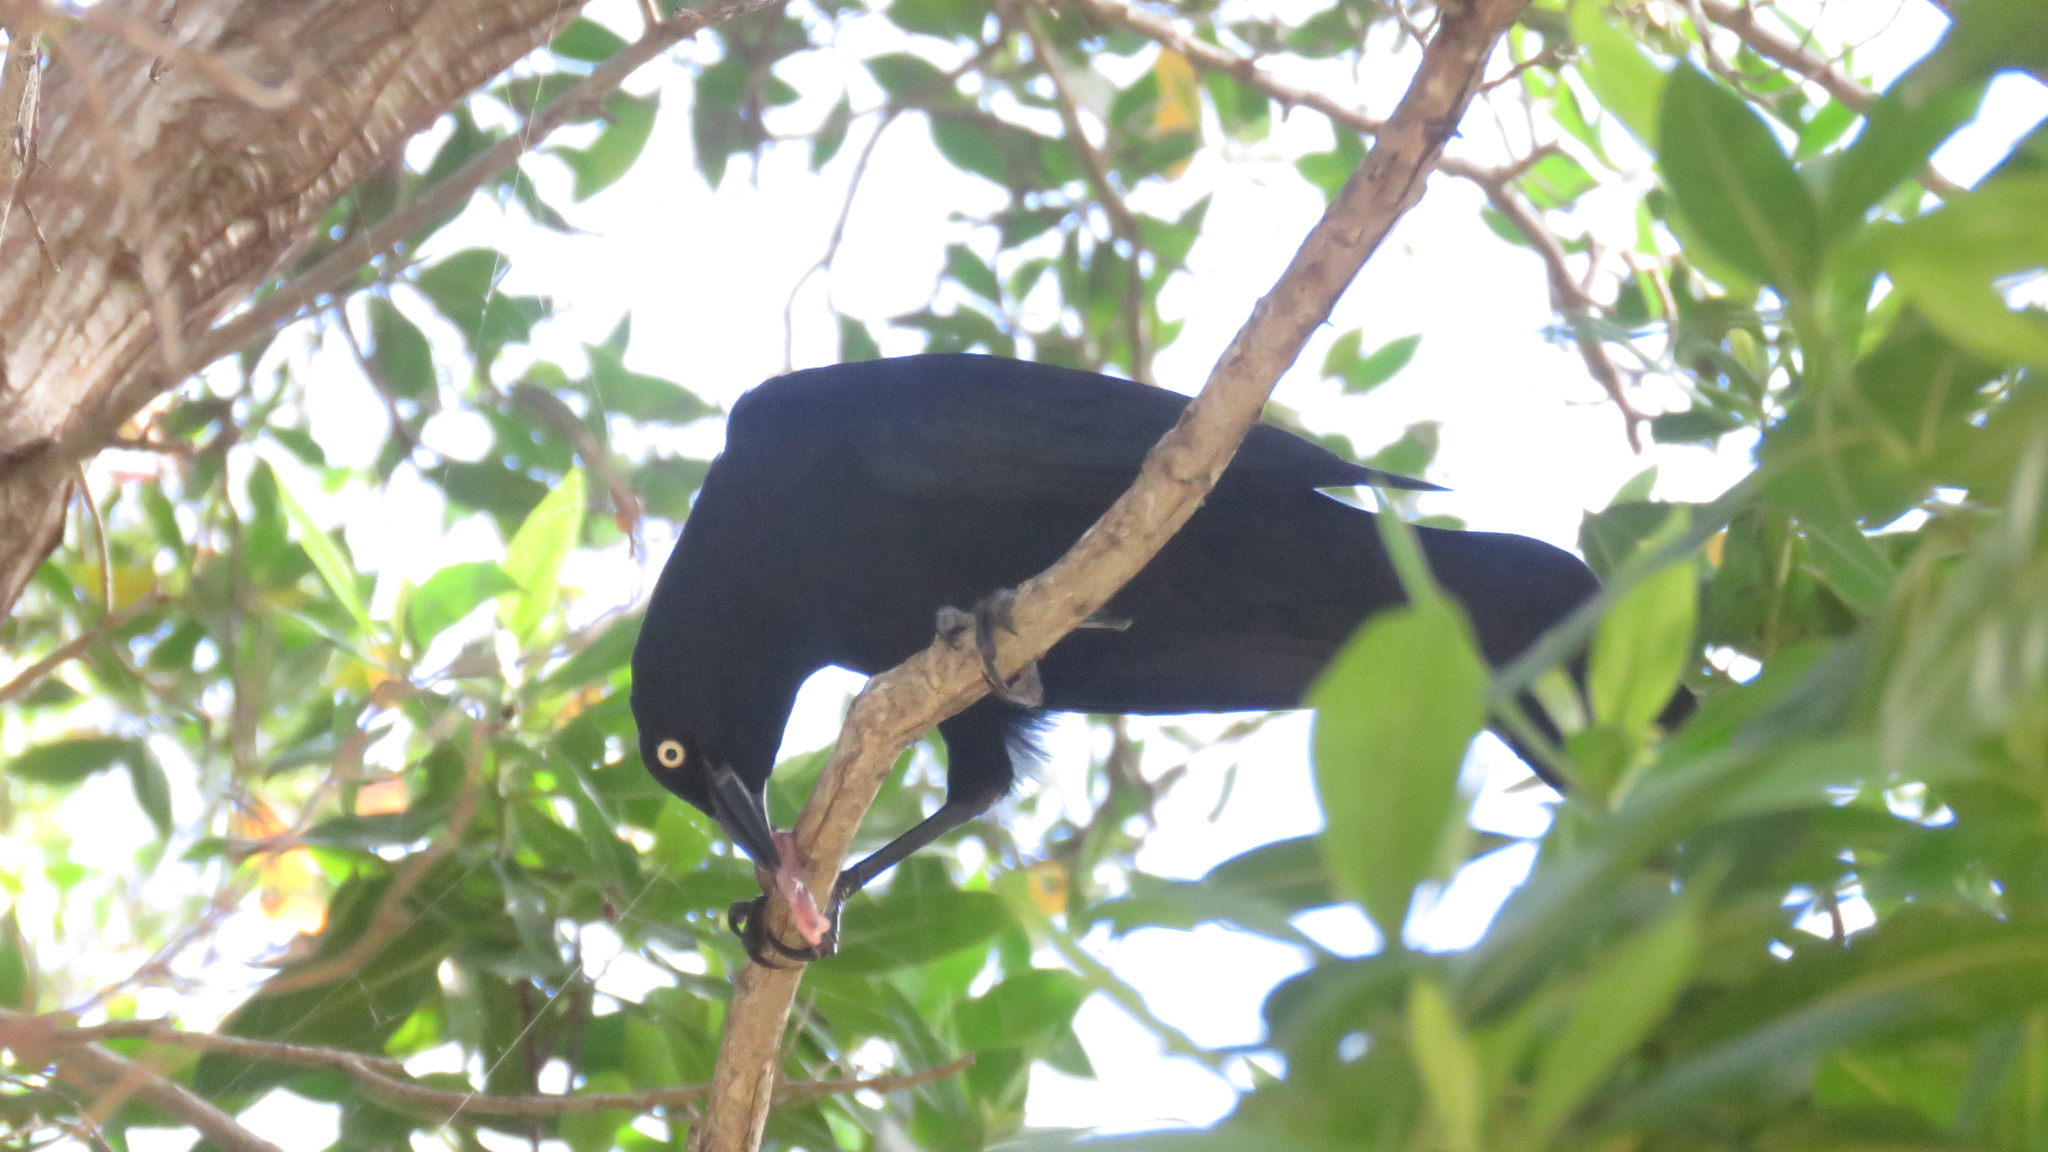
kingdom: Animalia
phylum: Chordata
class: Aves
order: Passeriformes
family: Icteridae
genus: Quiscalus
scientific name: Quiscalus niger
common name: Greater antillean grackle
